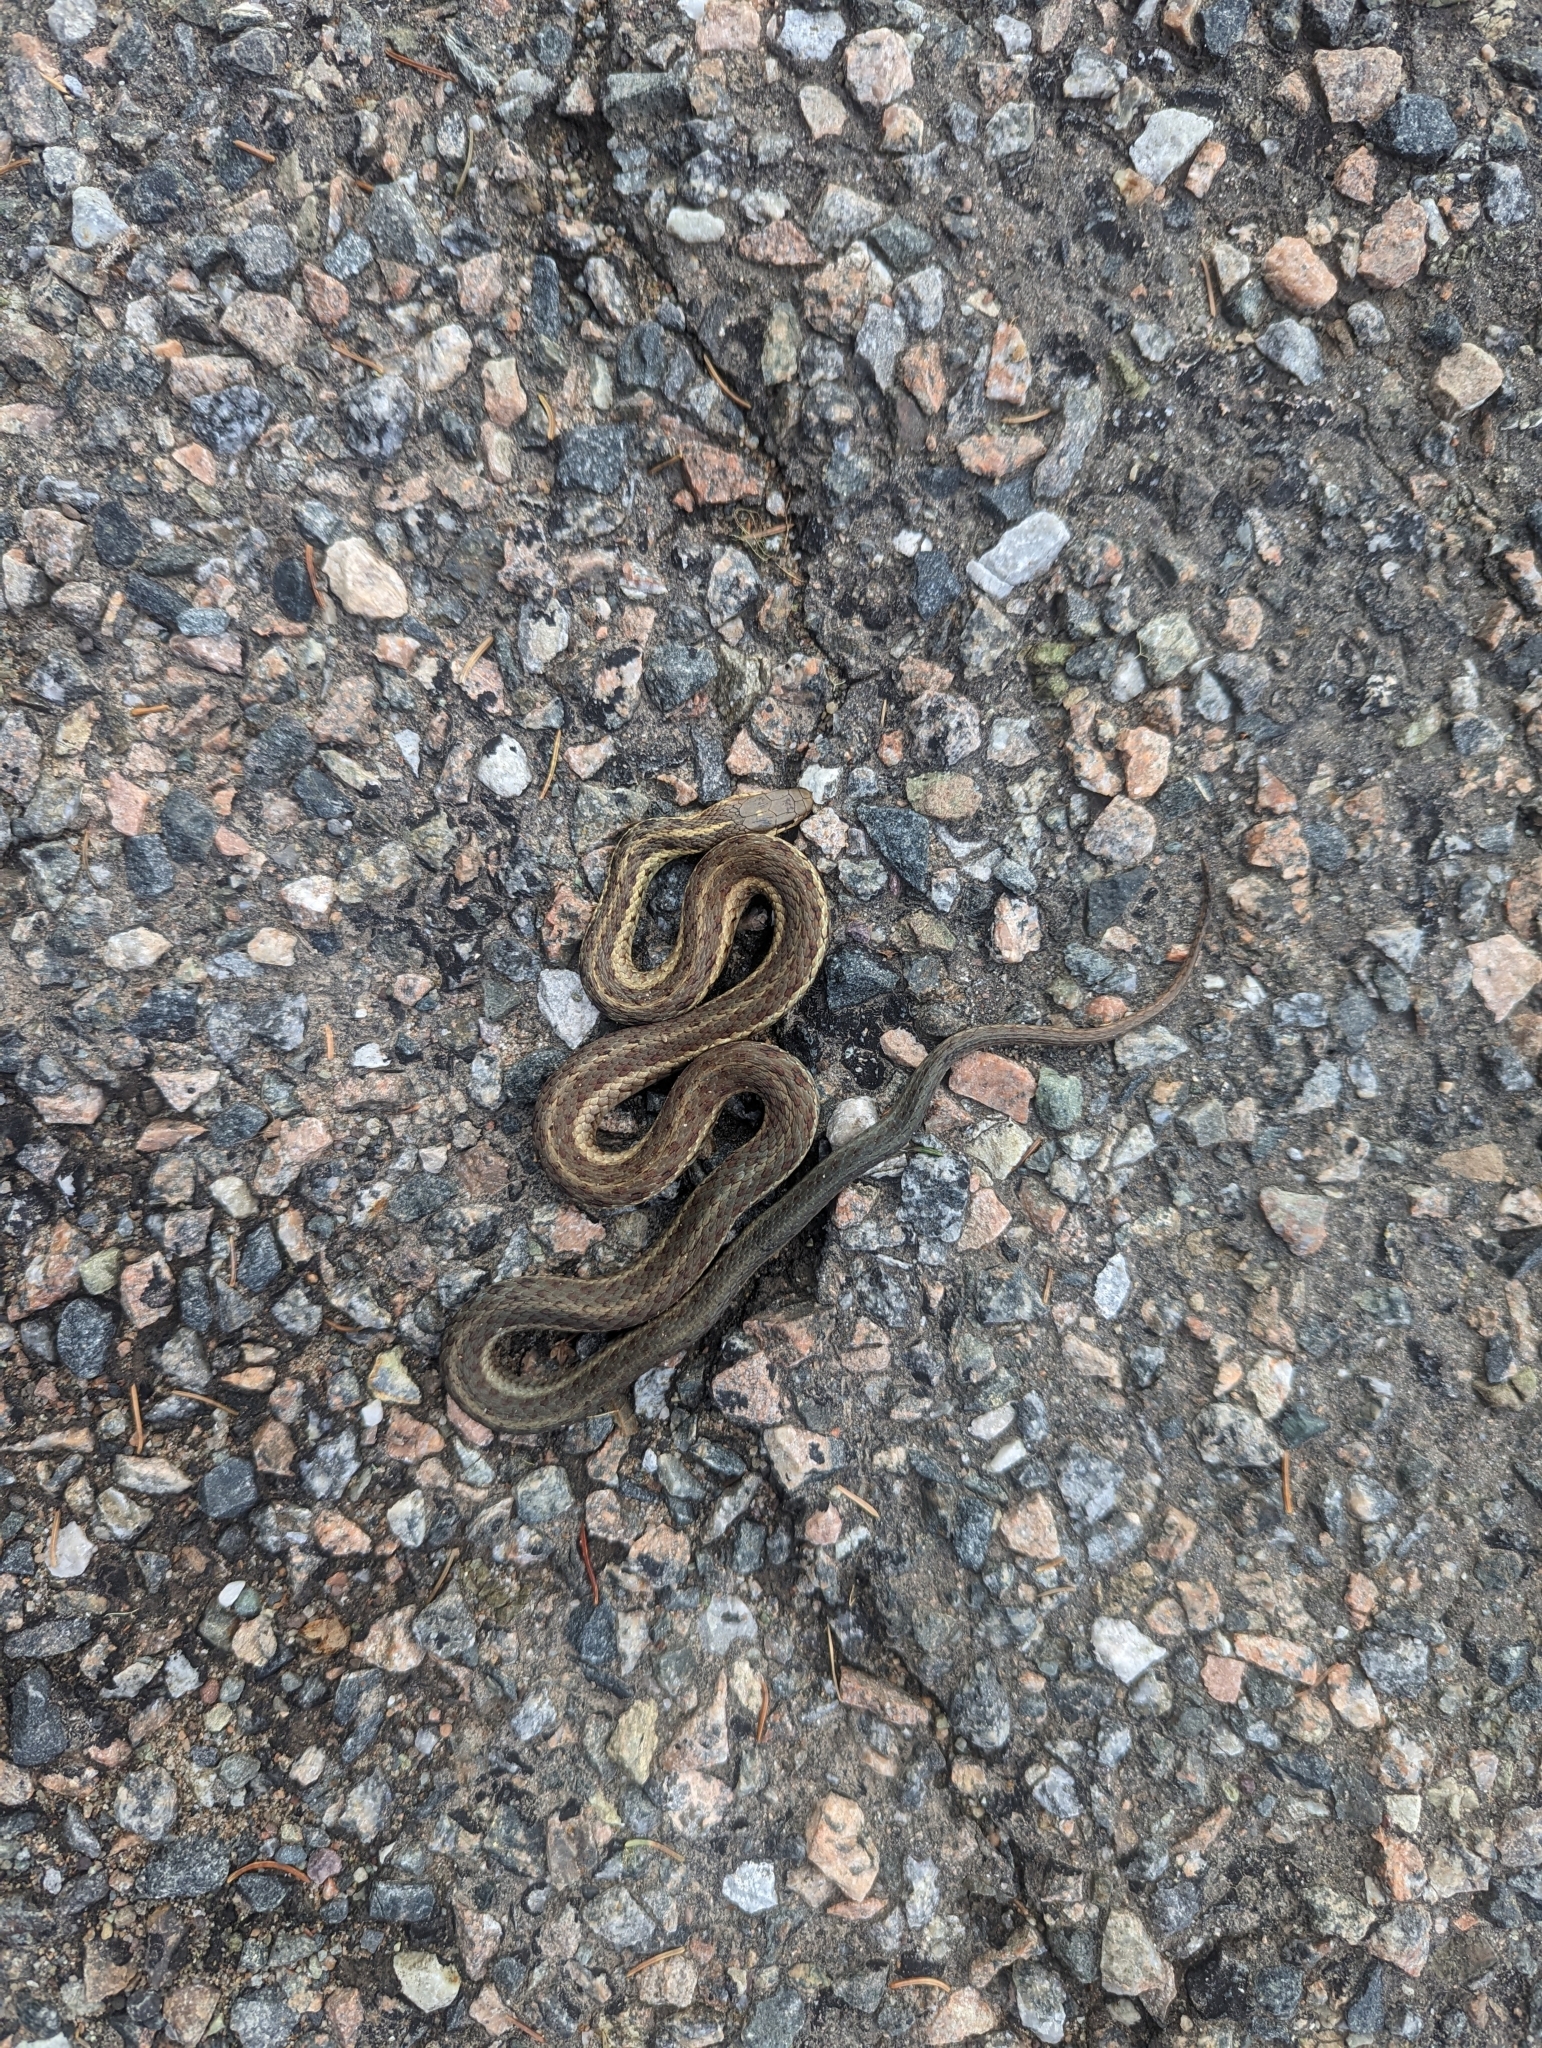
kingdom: Animalia
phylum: Chordata
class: Squamata
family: Colubridae
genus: Thamnophis
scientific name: Thamnophis sirtalis
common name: Common garter snake
